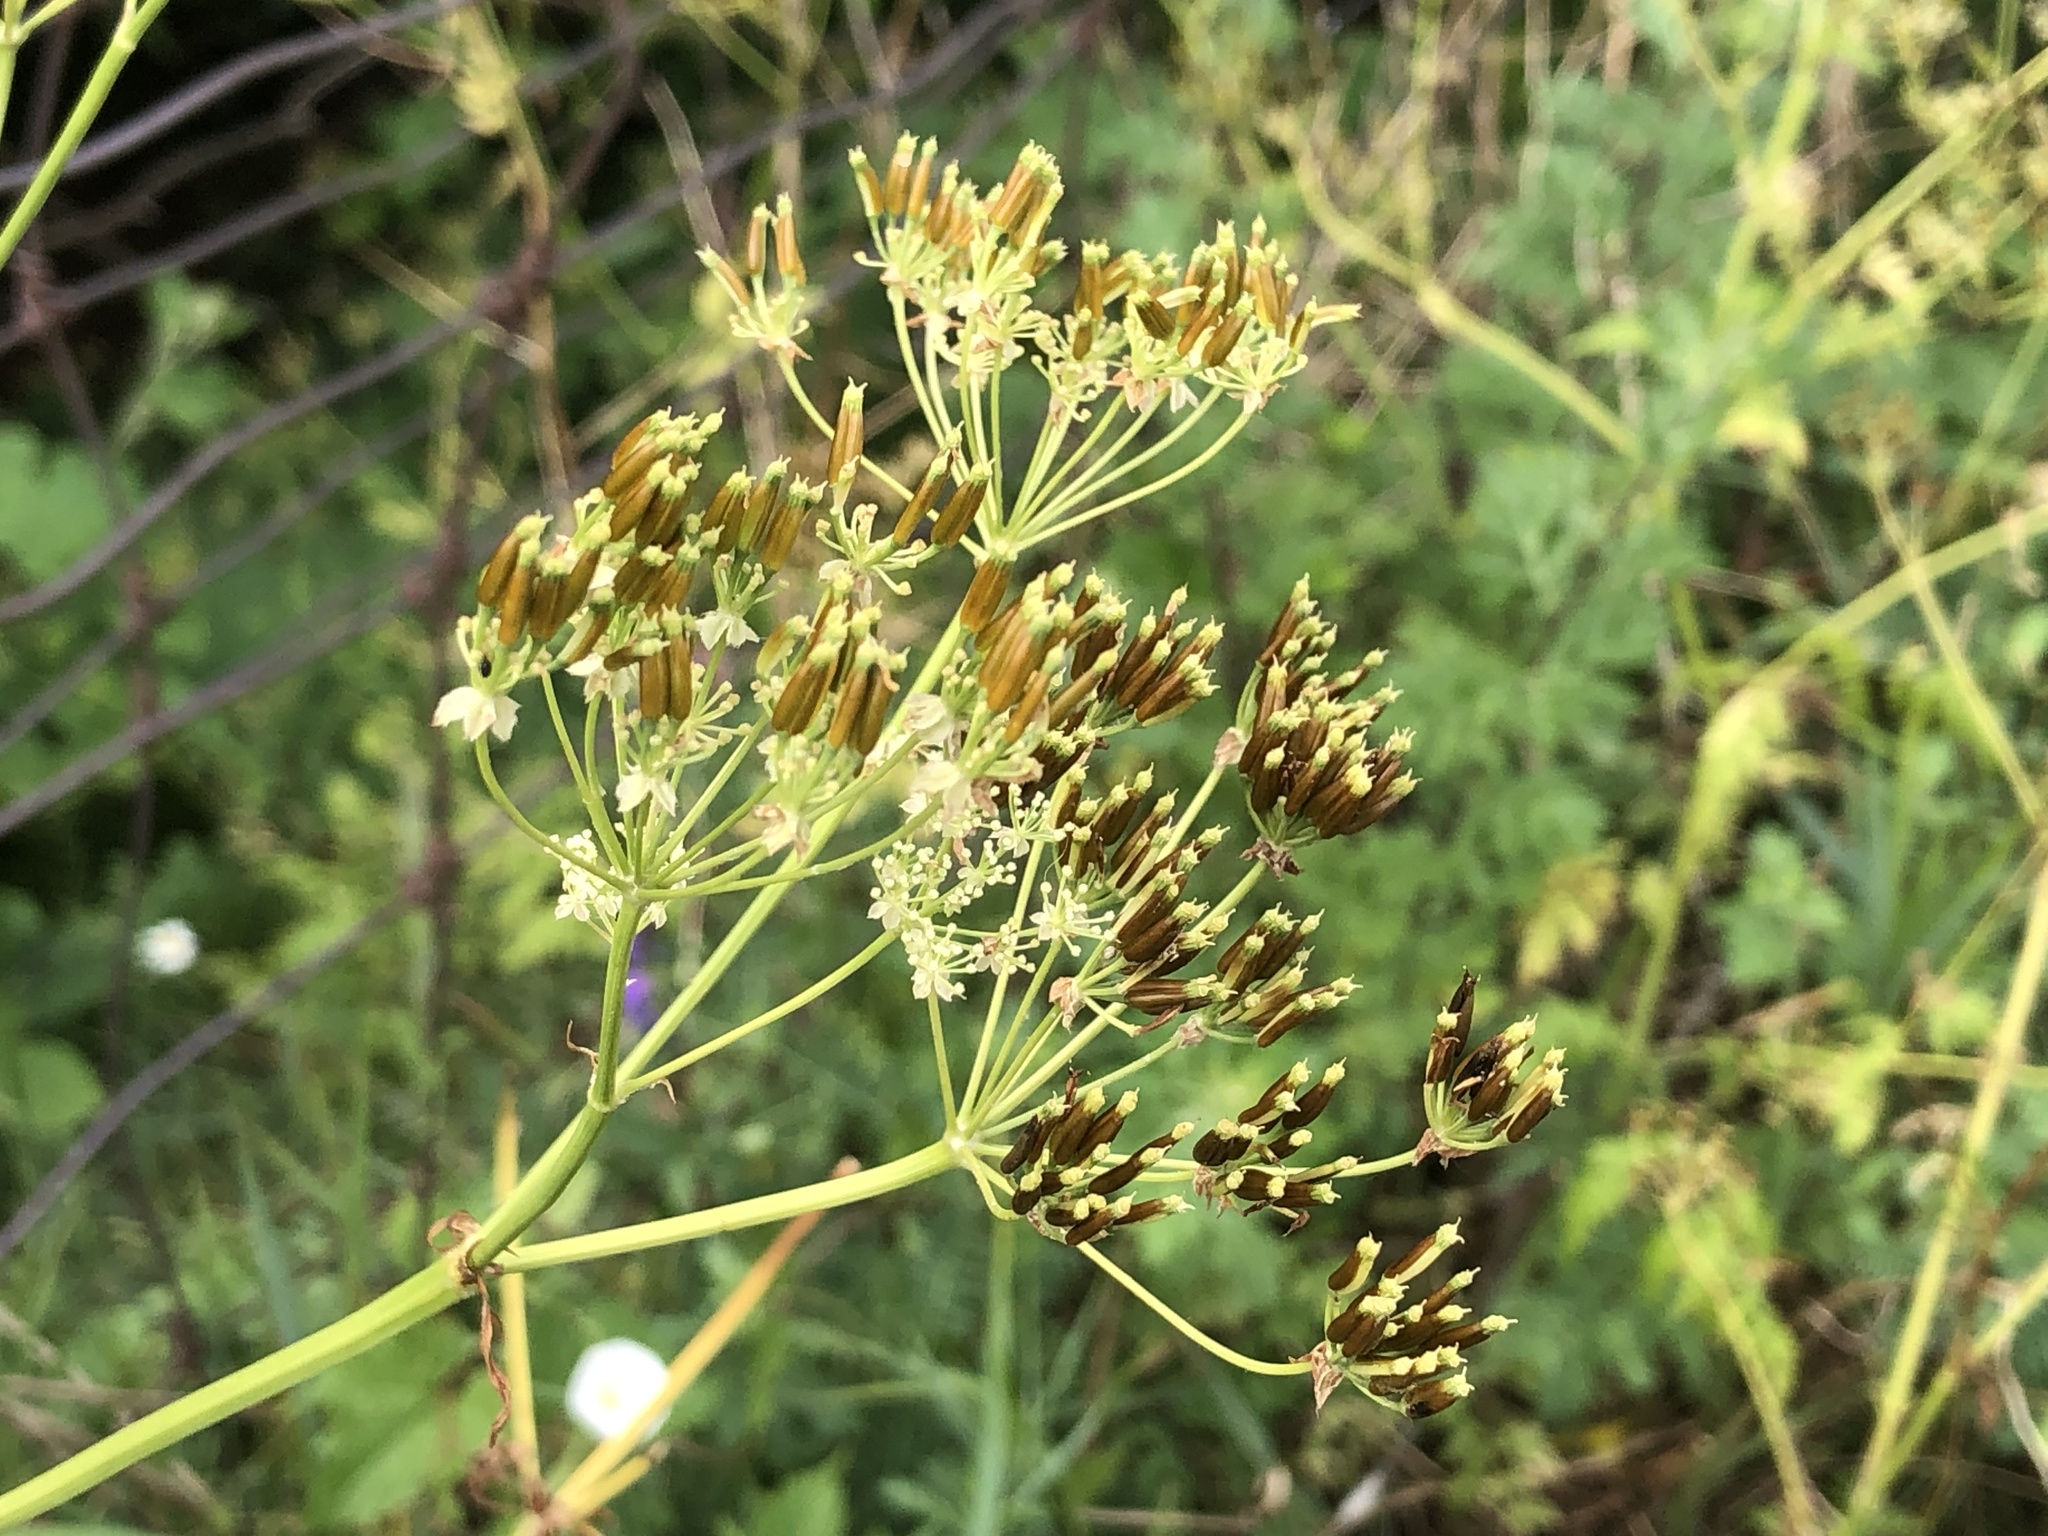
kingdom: Plantae
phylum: Tracheophyta
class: Magnoliopsida
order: Apiales
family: Apiaceae
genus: Pastinaca
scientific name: Pastinaca sativa
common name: Wild parsnip
